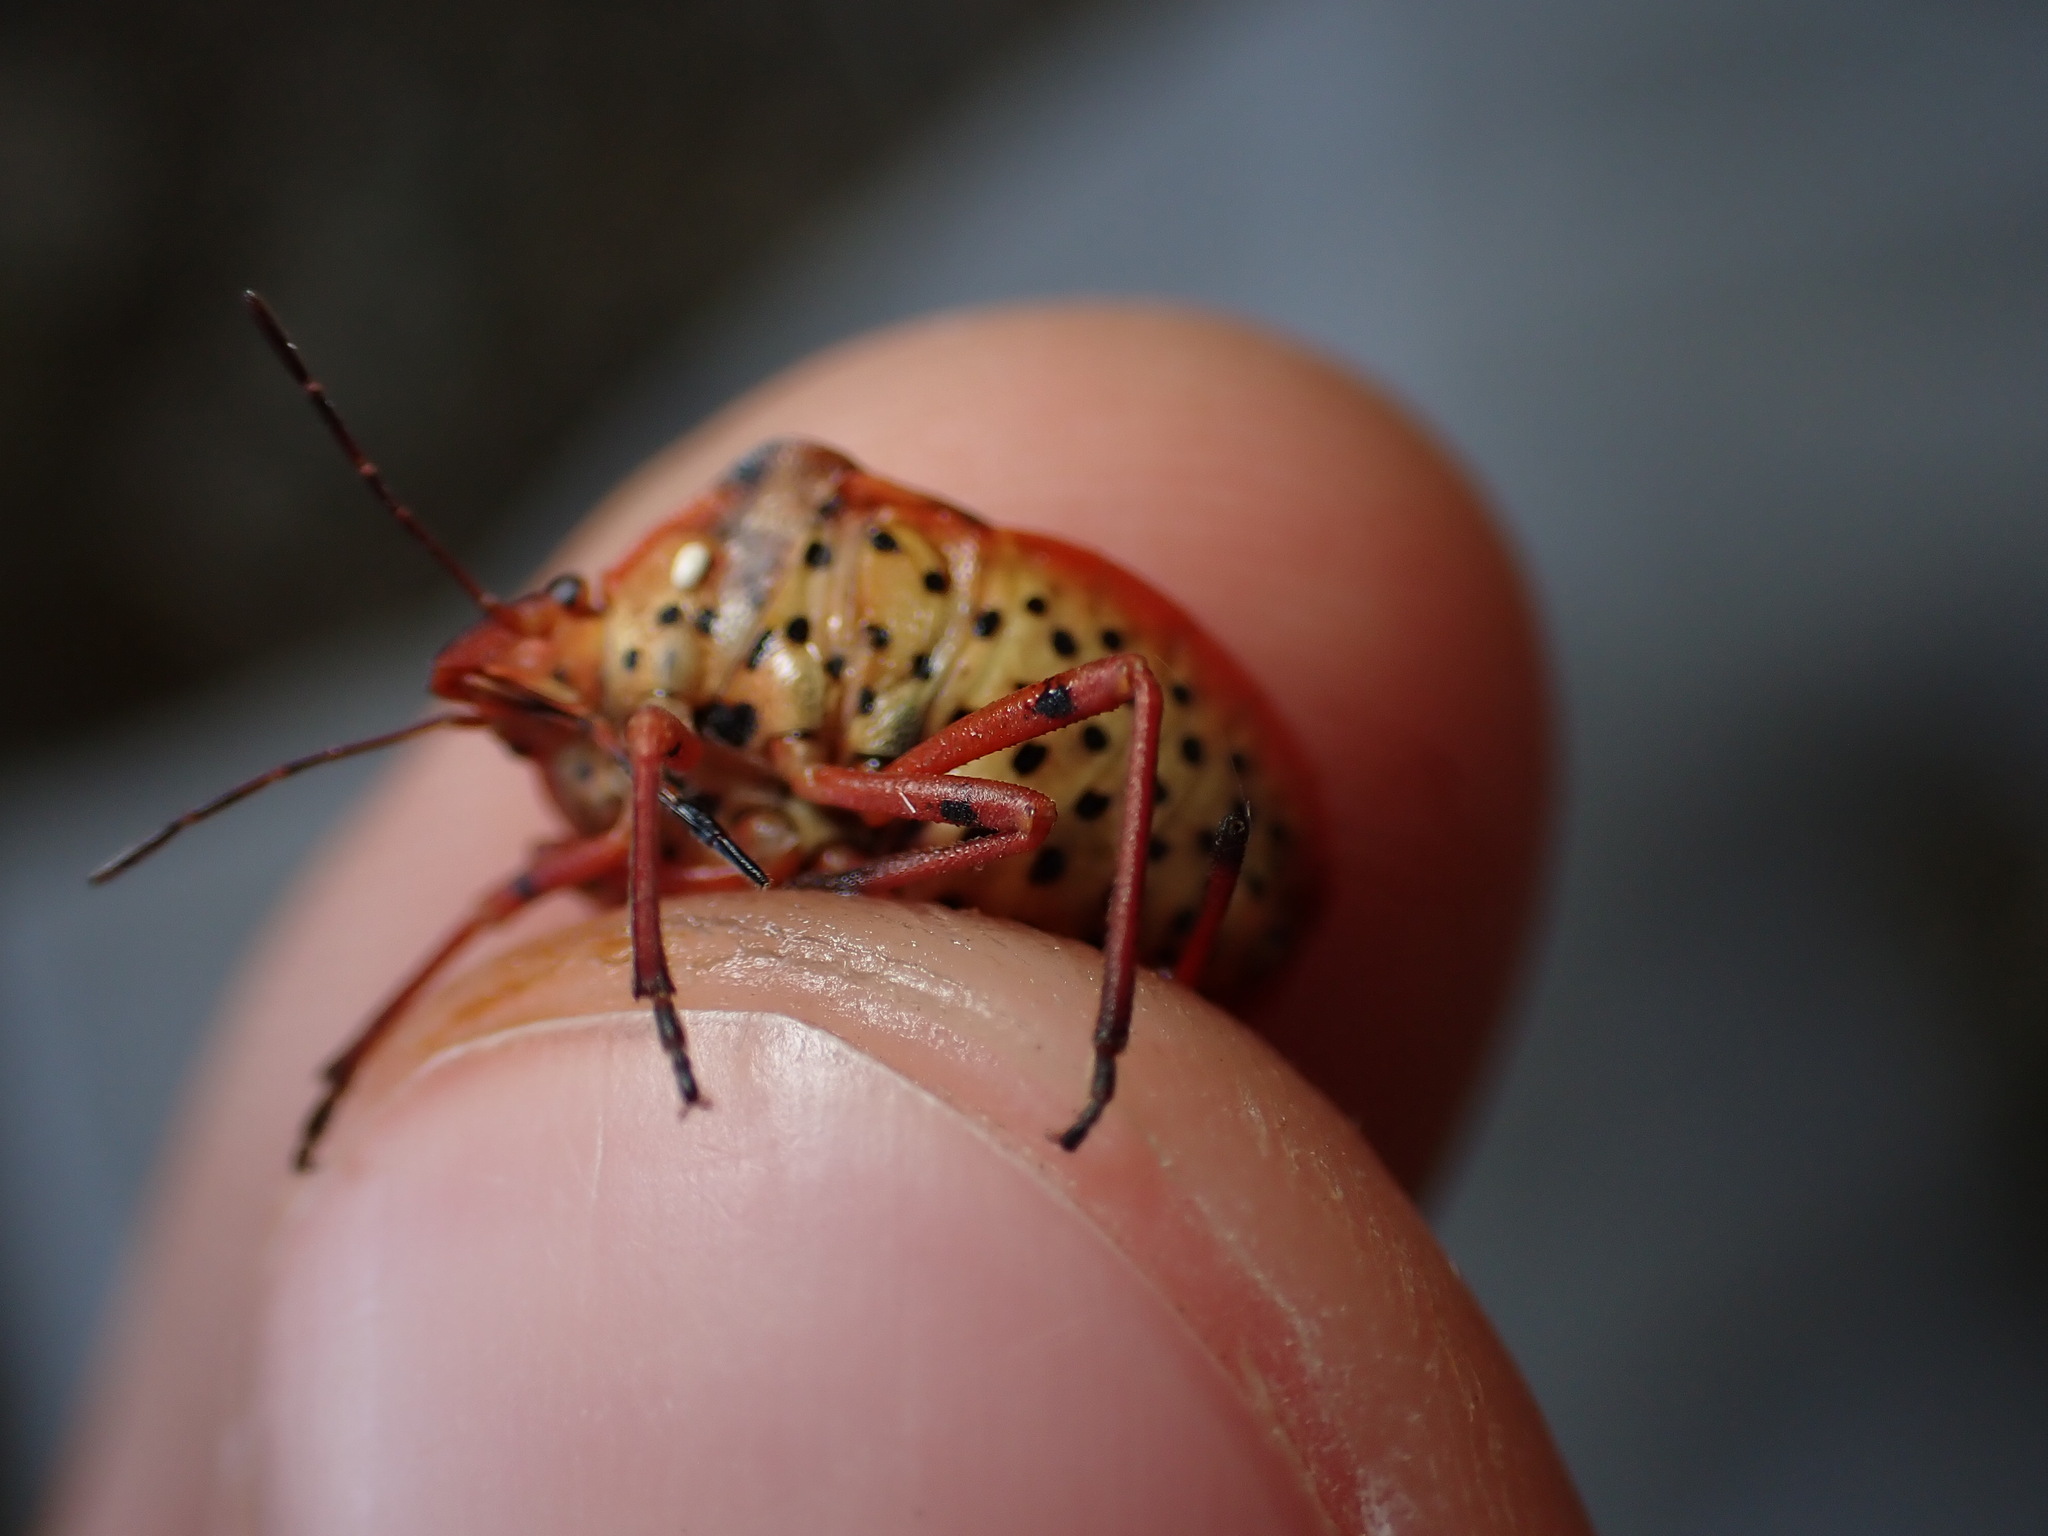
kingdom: Animalia
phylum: Arthropoda
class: Insecta
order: Hemiptera
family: Pentatomidae
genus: Graphosoma
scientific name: Graphosoma semipunctatum
